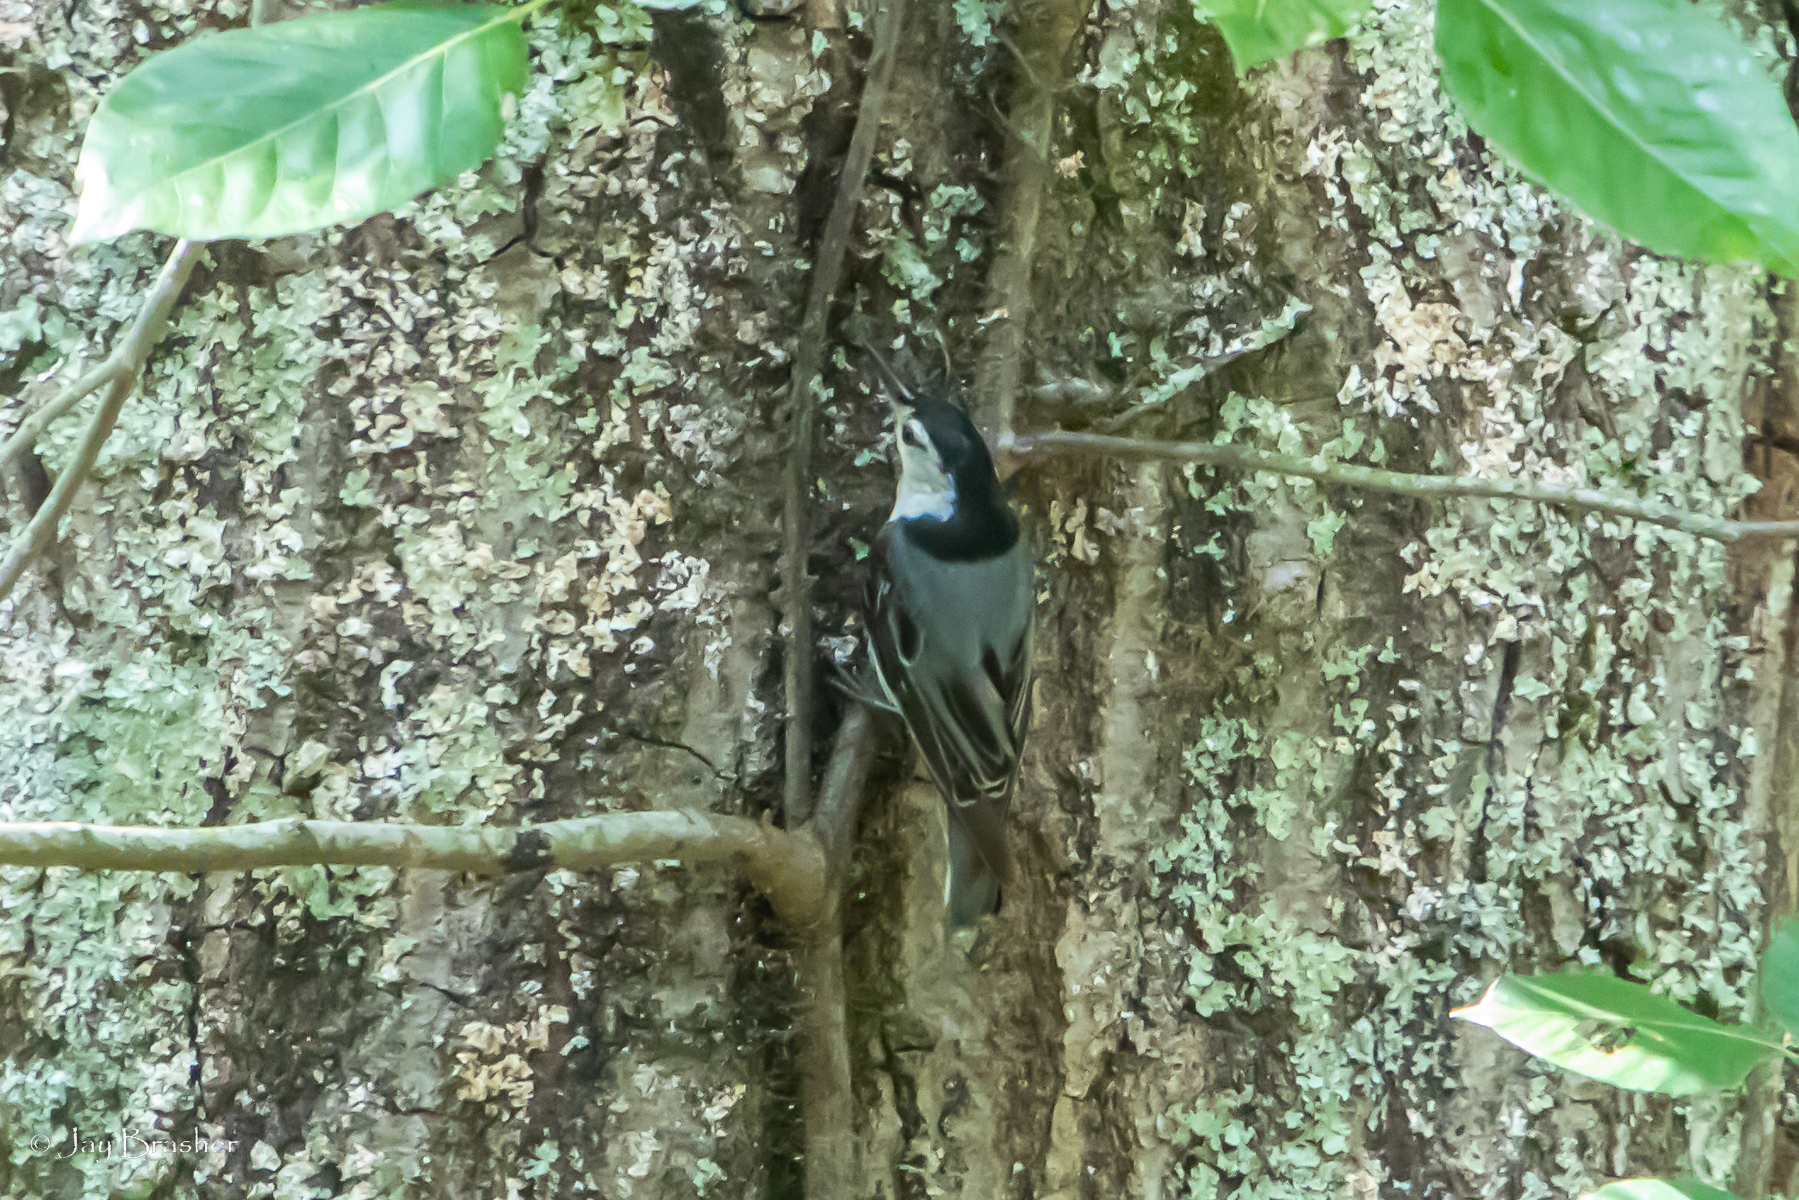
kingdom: Animalia
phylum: Chordata
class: Aves
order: Passeriformes
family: Sittidae
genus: Sitta
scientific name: Sitta carolinensis
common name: White-breasted nuthatch
